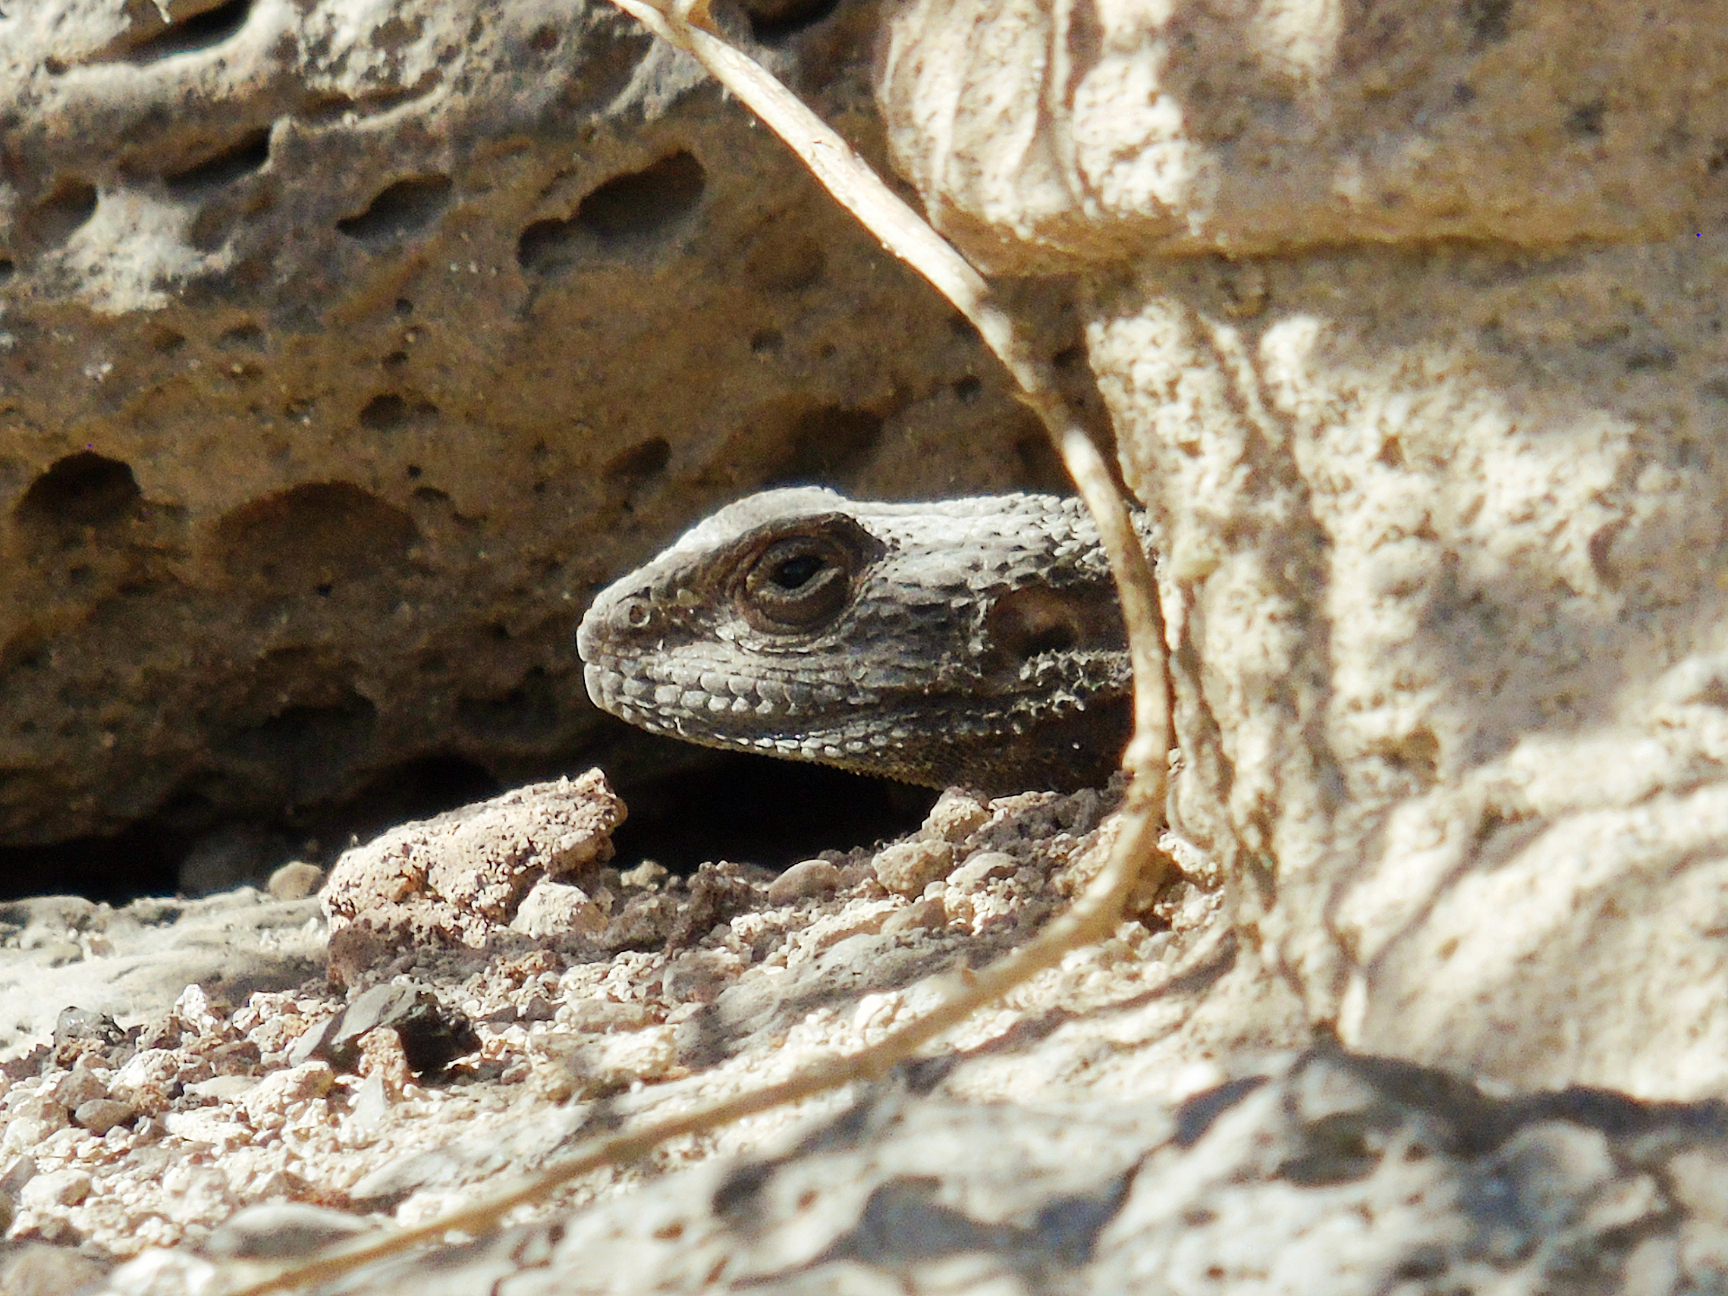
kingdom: Animalia
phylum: Chordata
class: Squamata
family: Agamidae
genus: Stellagama
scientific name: Stellagama stellio
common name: Starred agama
